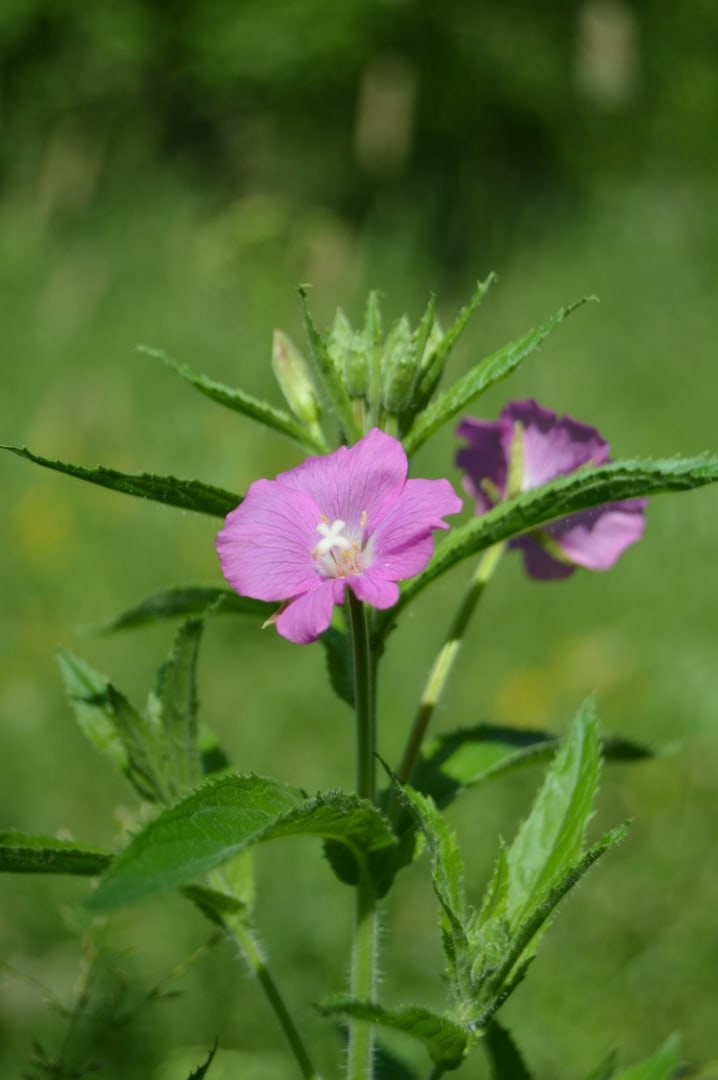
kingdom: Plantae
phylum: Tracheophyta
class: Magnoliopsida
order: Myrtales
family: Onagraceae
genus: Epilobium
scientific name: Epilobium hirsutum
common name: Great willowherb
